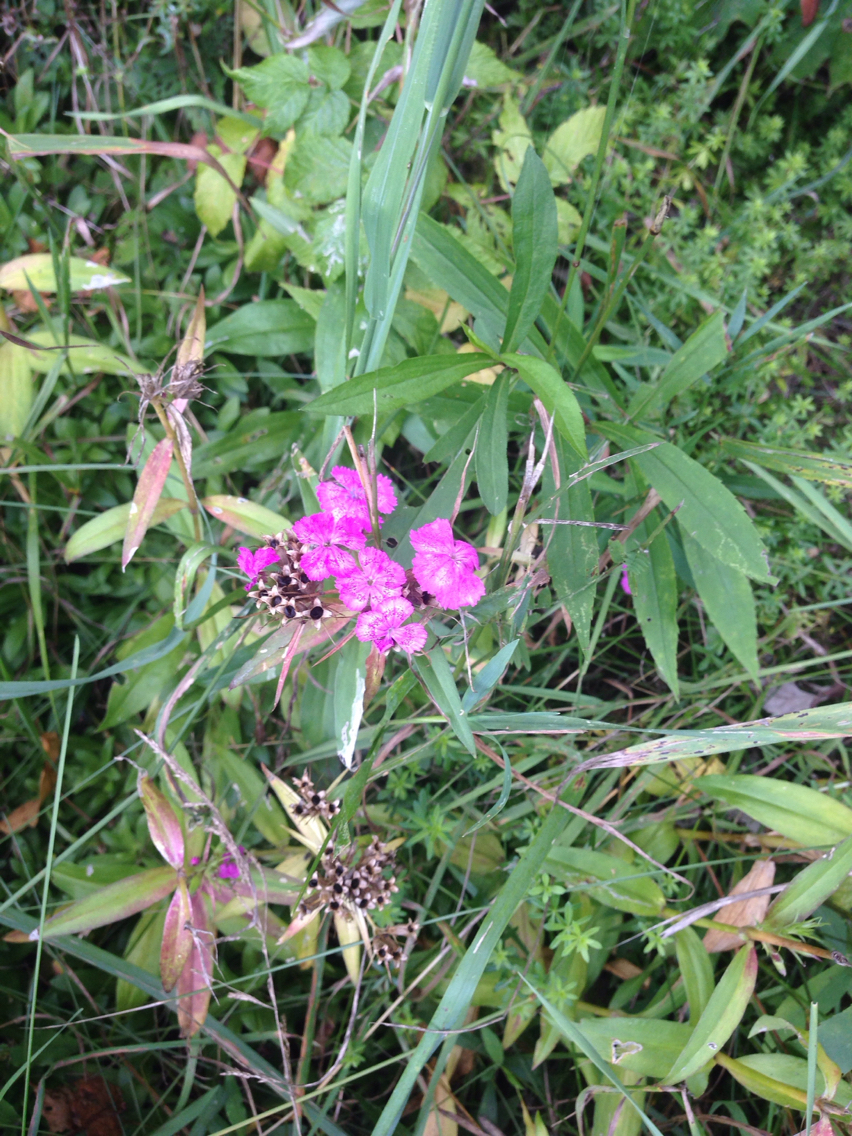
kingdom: Plantae
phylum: Tracheophyta
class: Magnoliopsida
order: Caryophyllales
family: Caryophyllaceae
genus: Dianthus
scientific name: Dianthus barbatus
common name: Sweet-william
